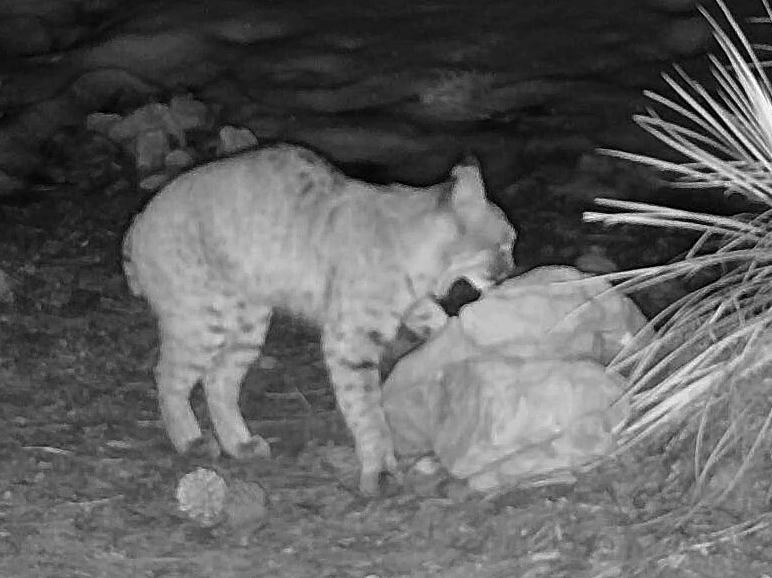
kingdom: Animalia
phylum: Chordata
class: Mammalia
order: Carnivora
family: Felidae
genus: Lynx
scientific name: Lynx rufus
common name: Bobcat
